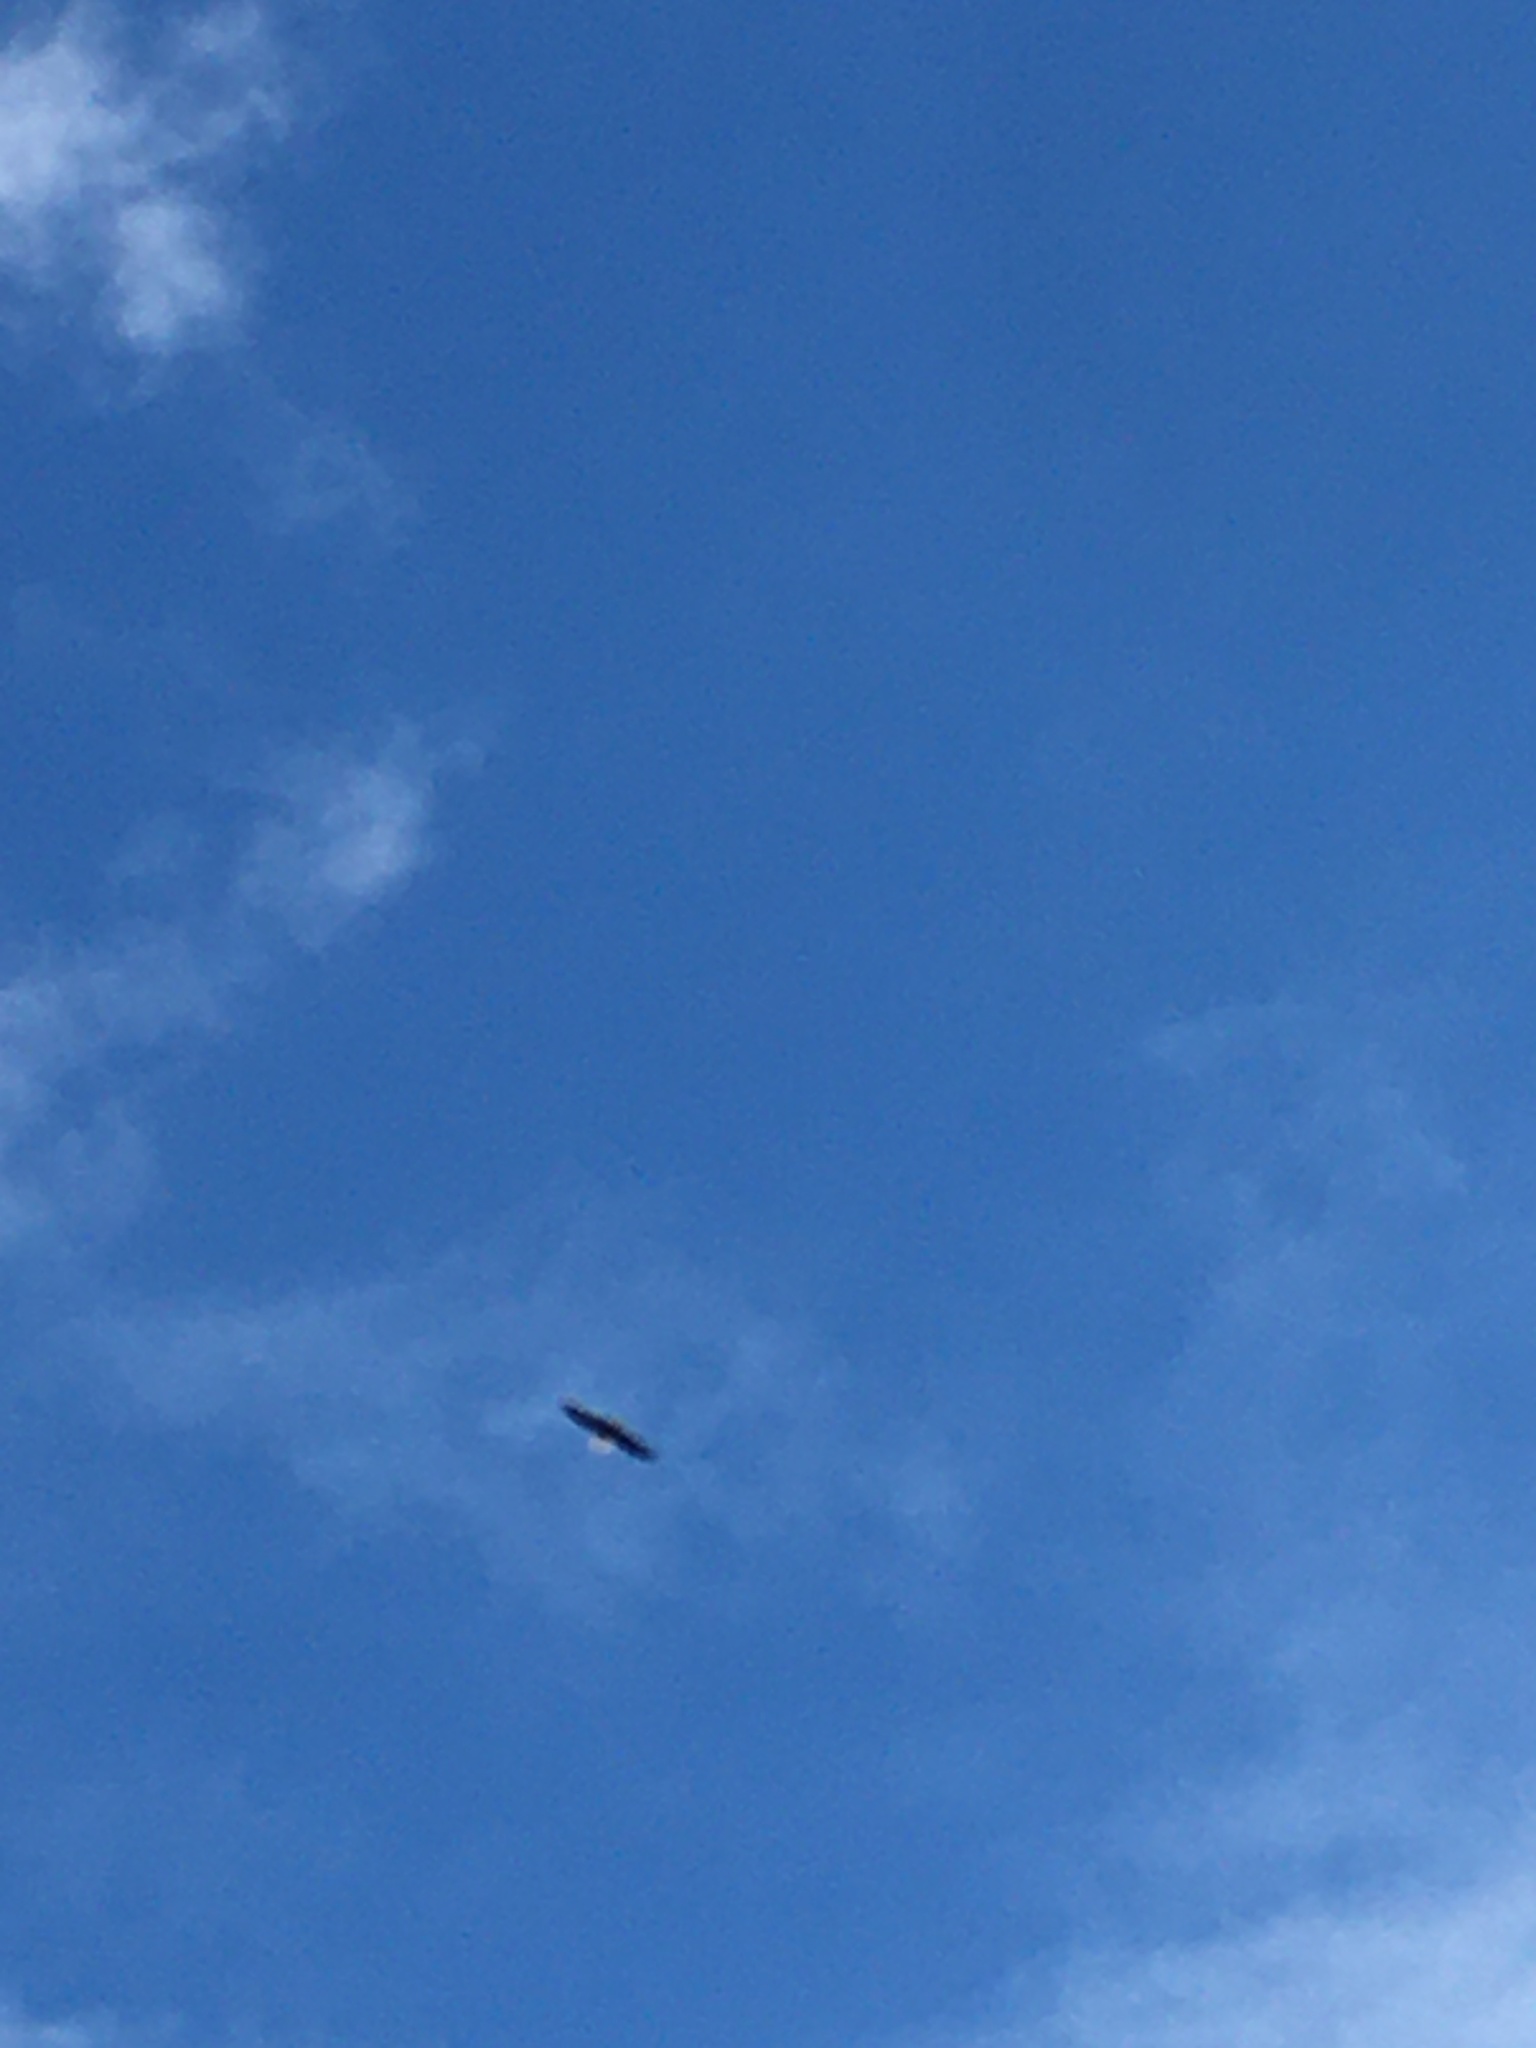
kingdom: Animalia
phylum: Chordata
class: Aves
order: Accipitriformes
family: Accipitridae
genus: Haliaeetus
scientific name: Haliaeetus leucocephalus
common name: Bald eagle
